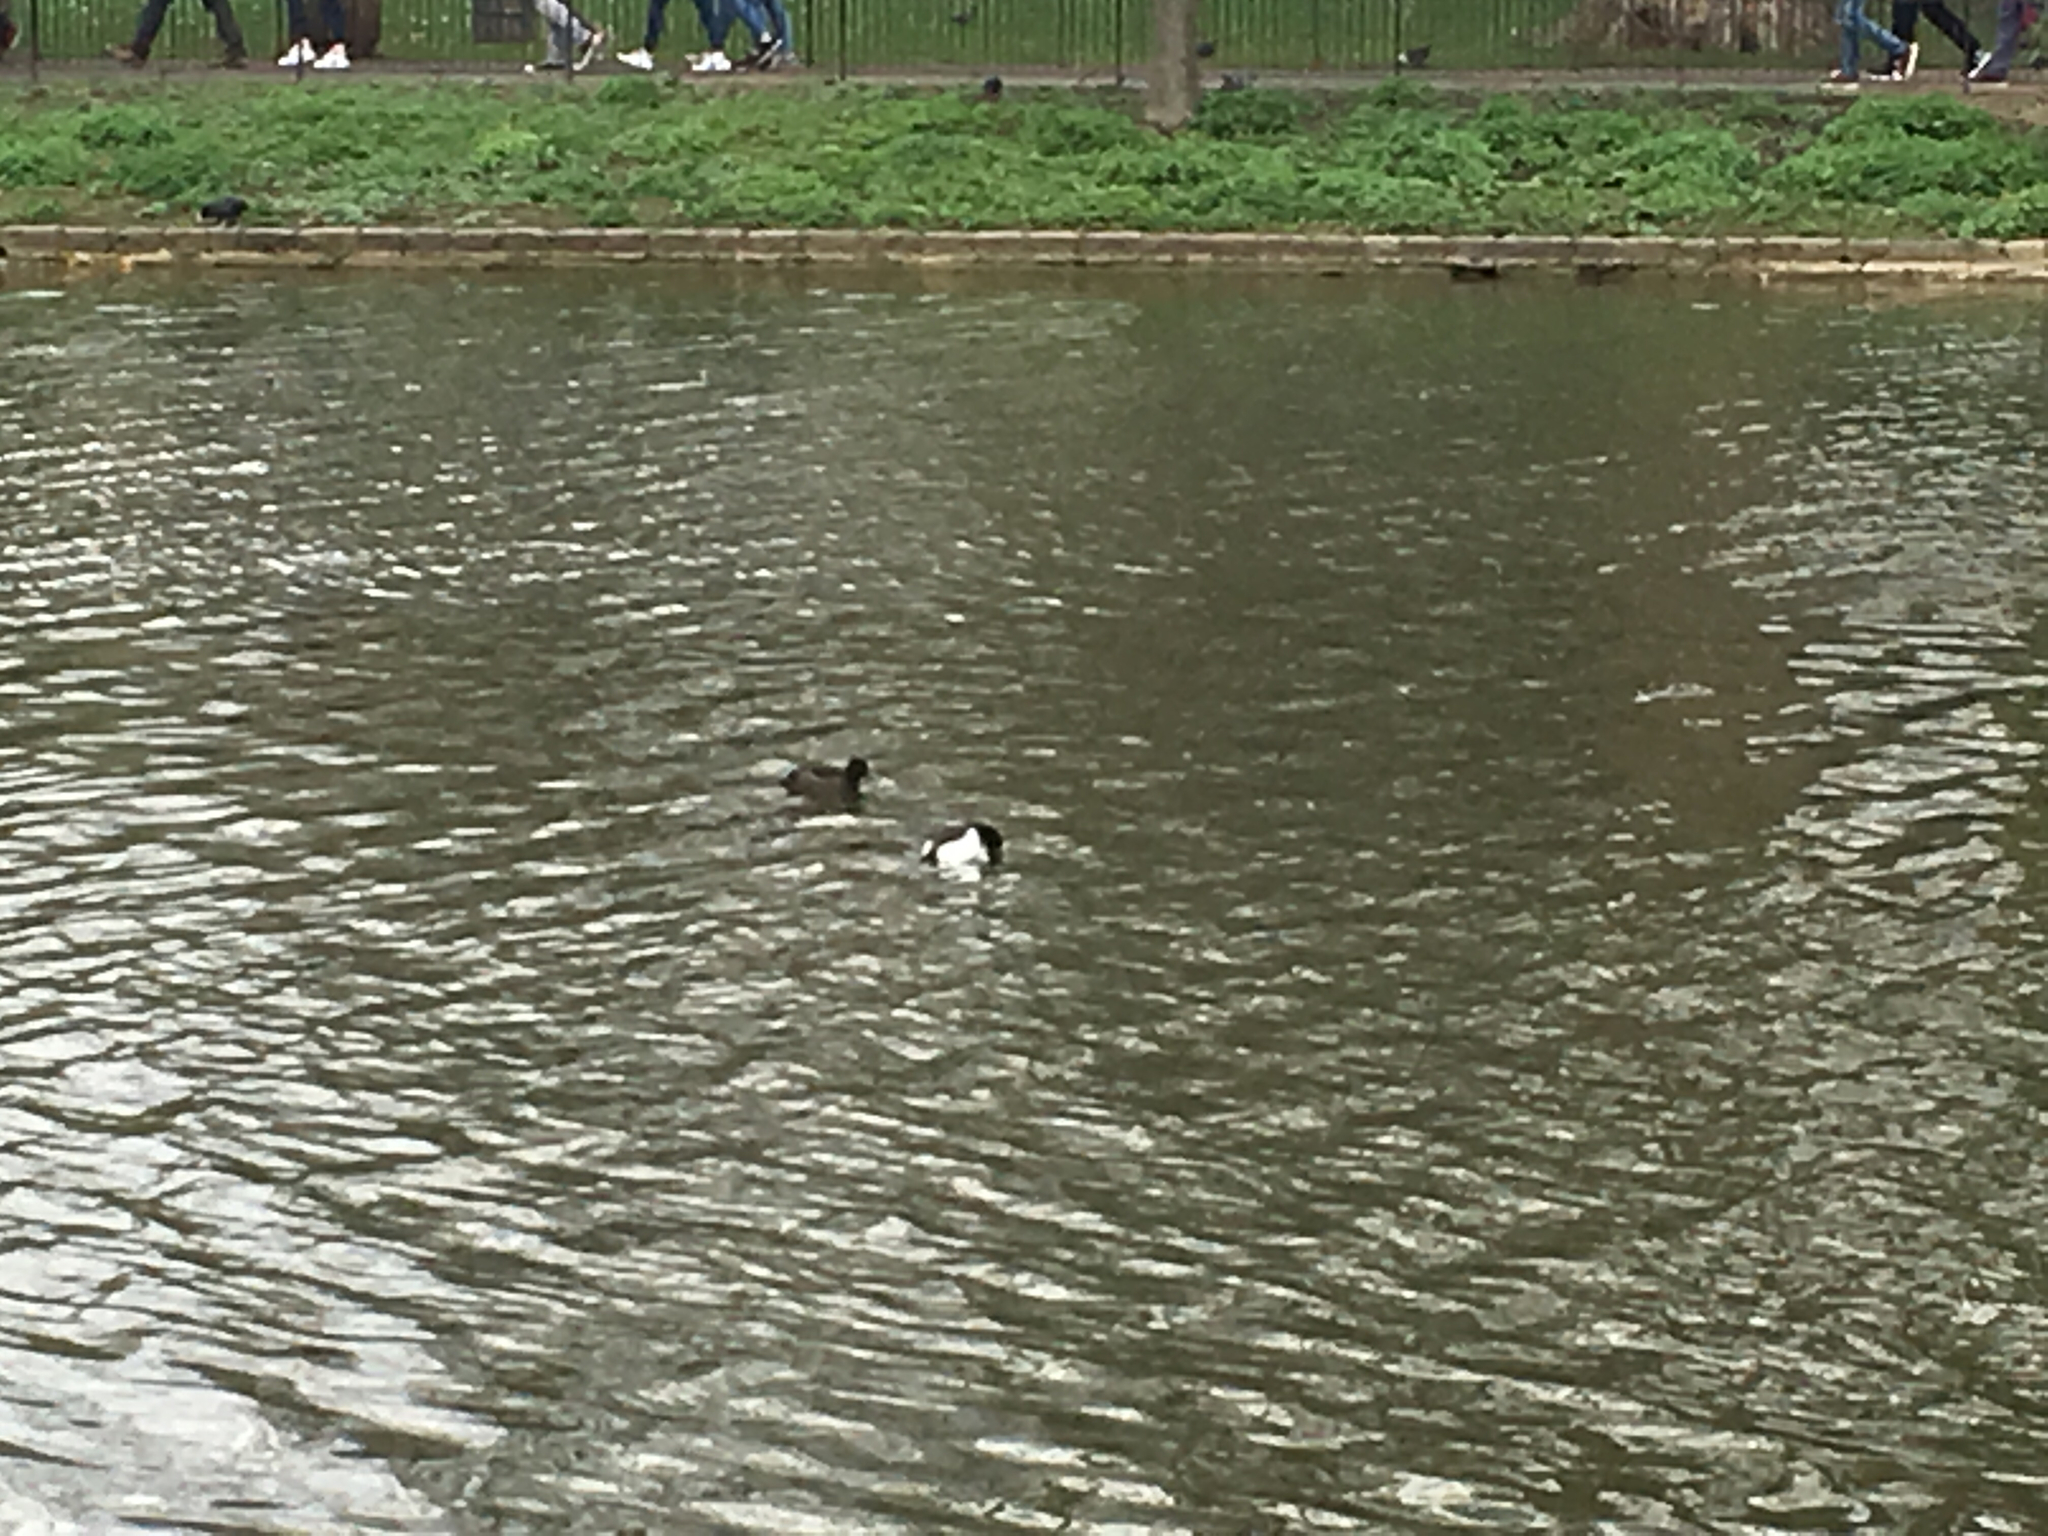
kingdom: Animalia
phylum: Chordata
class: Aves
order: Anseriformes
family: Anatidae
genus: Aythya
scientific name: Aythya fuligula
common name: Tufted duck
